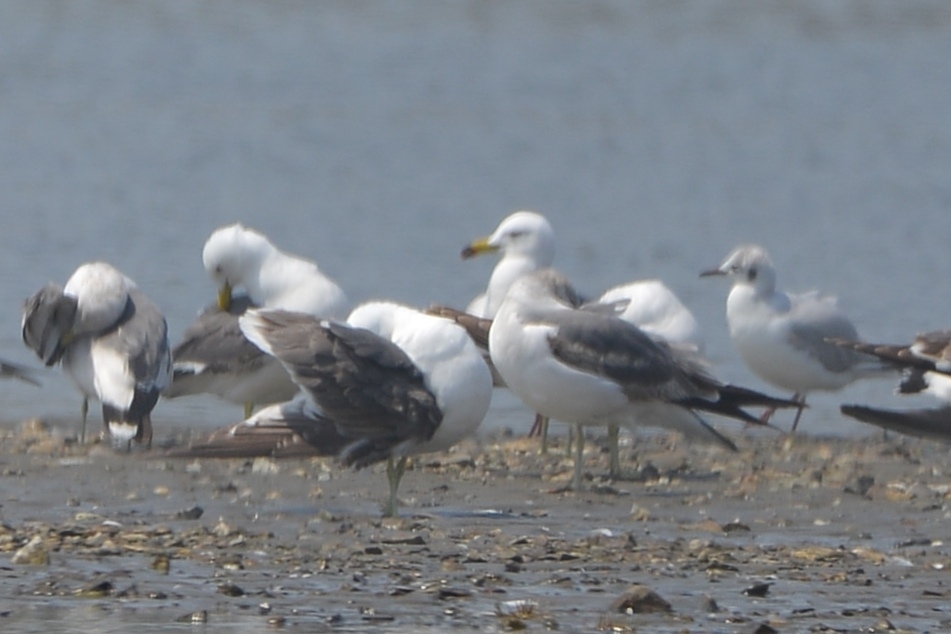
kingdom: Animalia
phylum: Chordata
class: Aves
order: Charadriiformes
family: Laridae
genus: Larus
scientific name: Larus crassirostris
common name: Black-tailed gull
